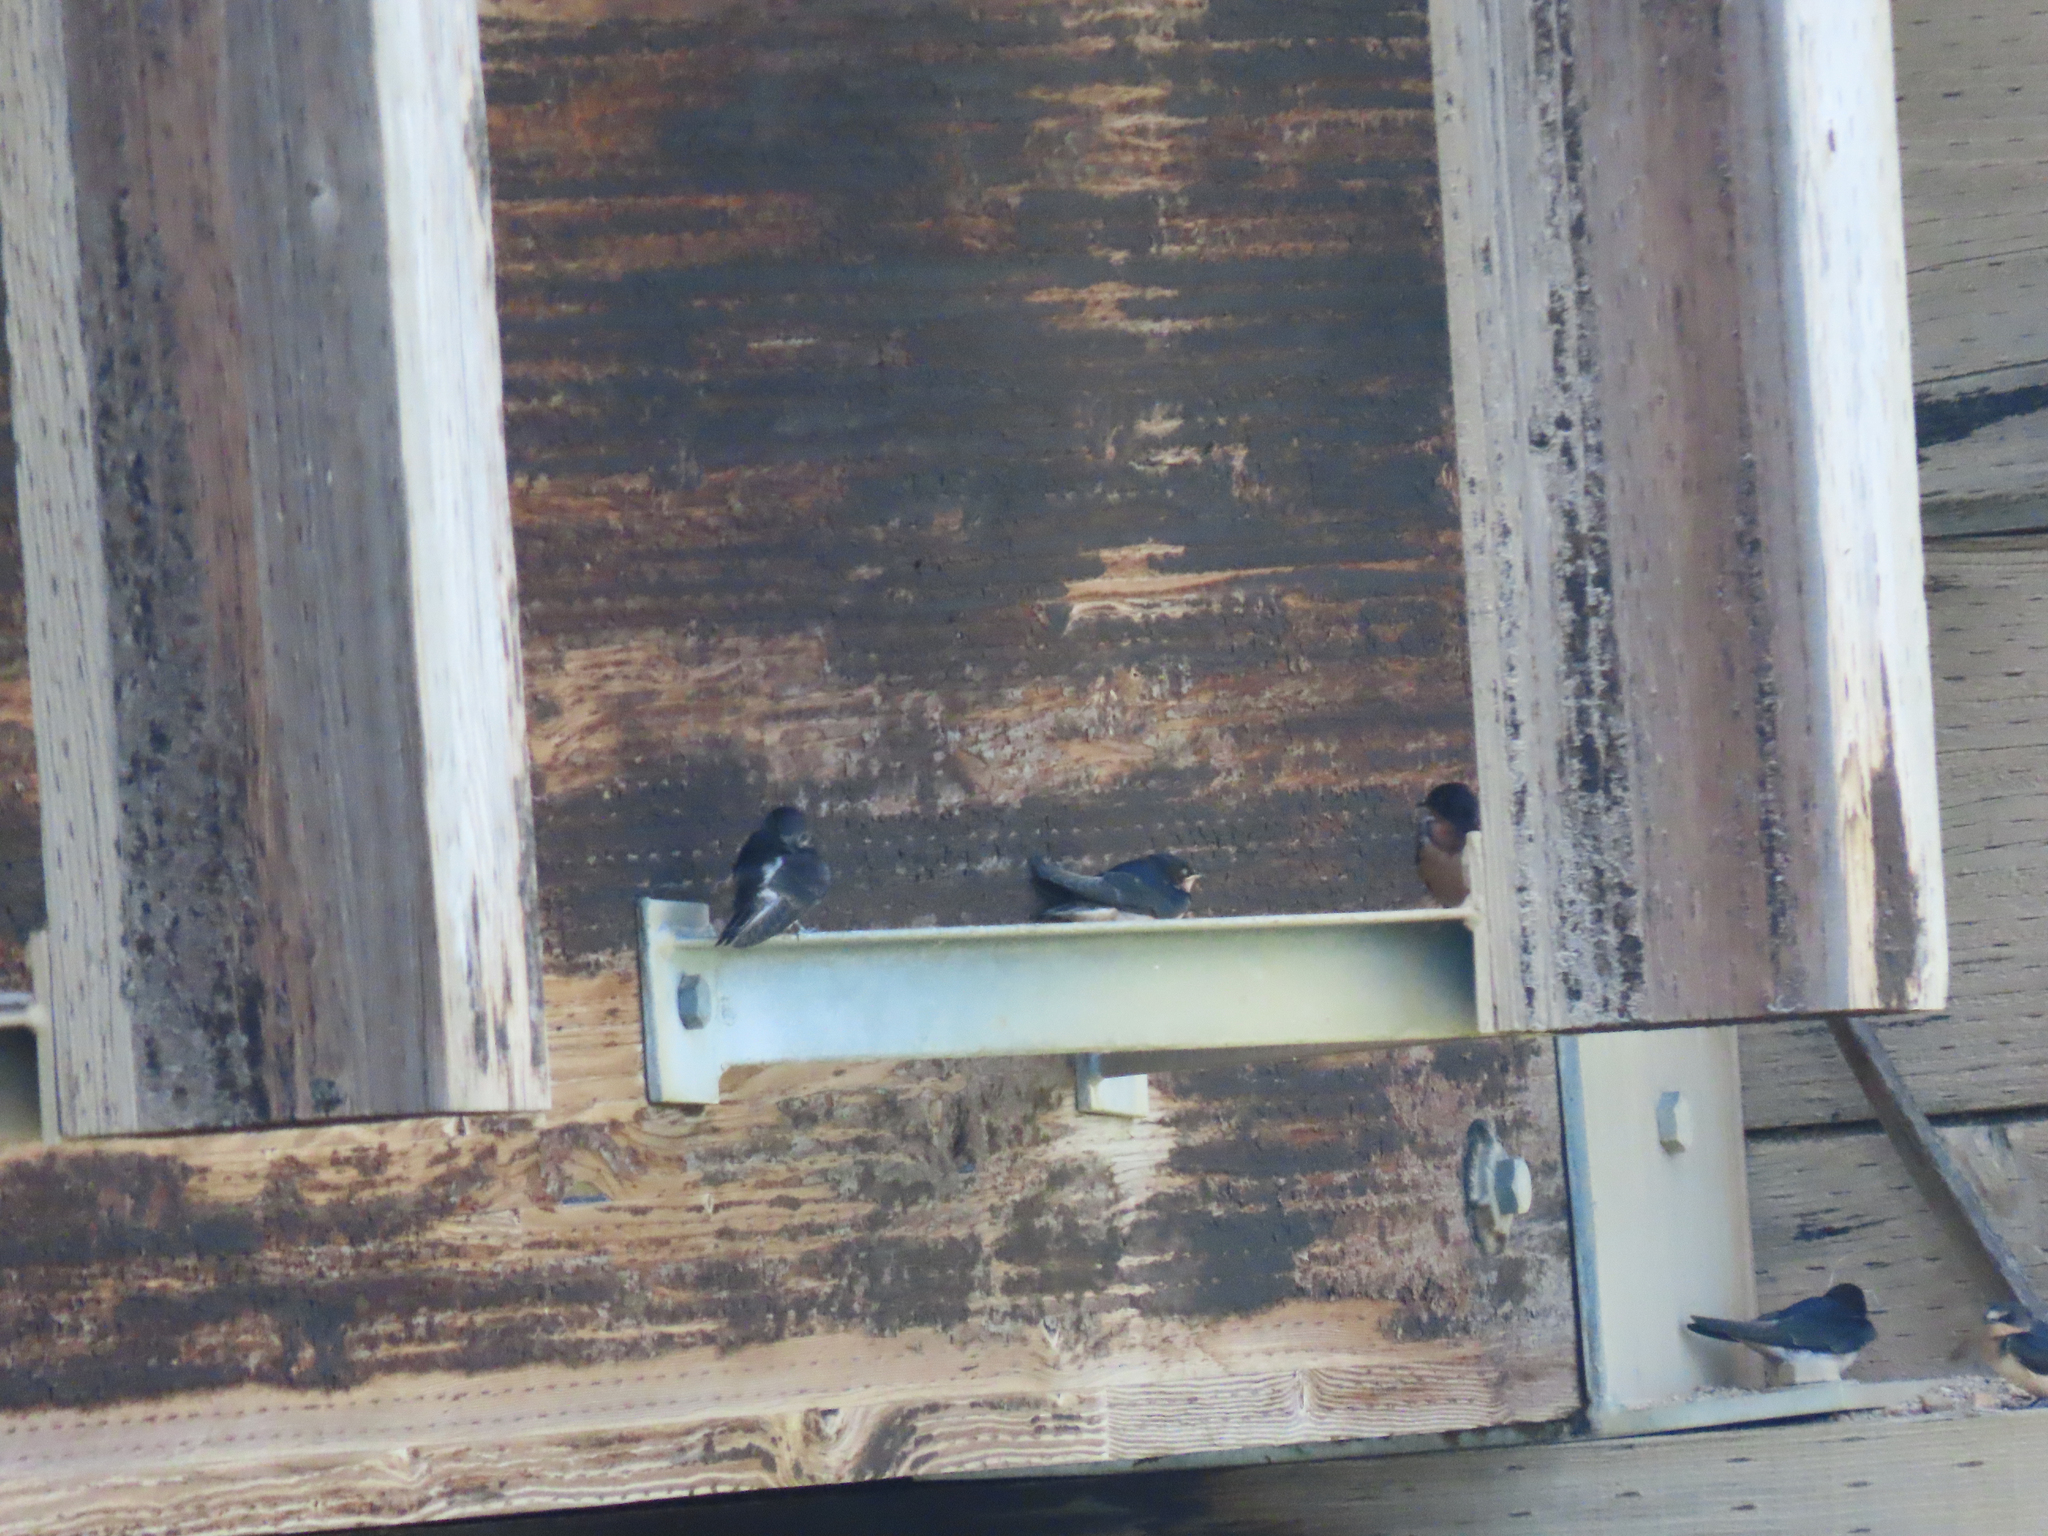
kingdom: Animalia
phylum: Chordata
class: Aves
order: Passeriformes
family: Hirundinidae
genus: Hirundo
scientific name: Hirundo rustica
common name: Barn swallow
